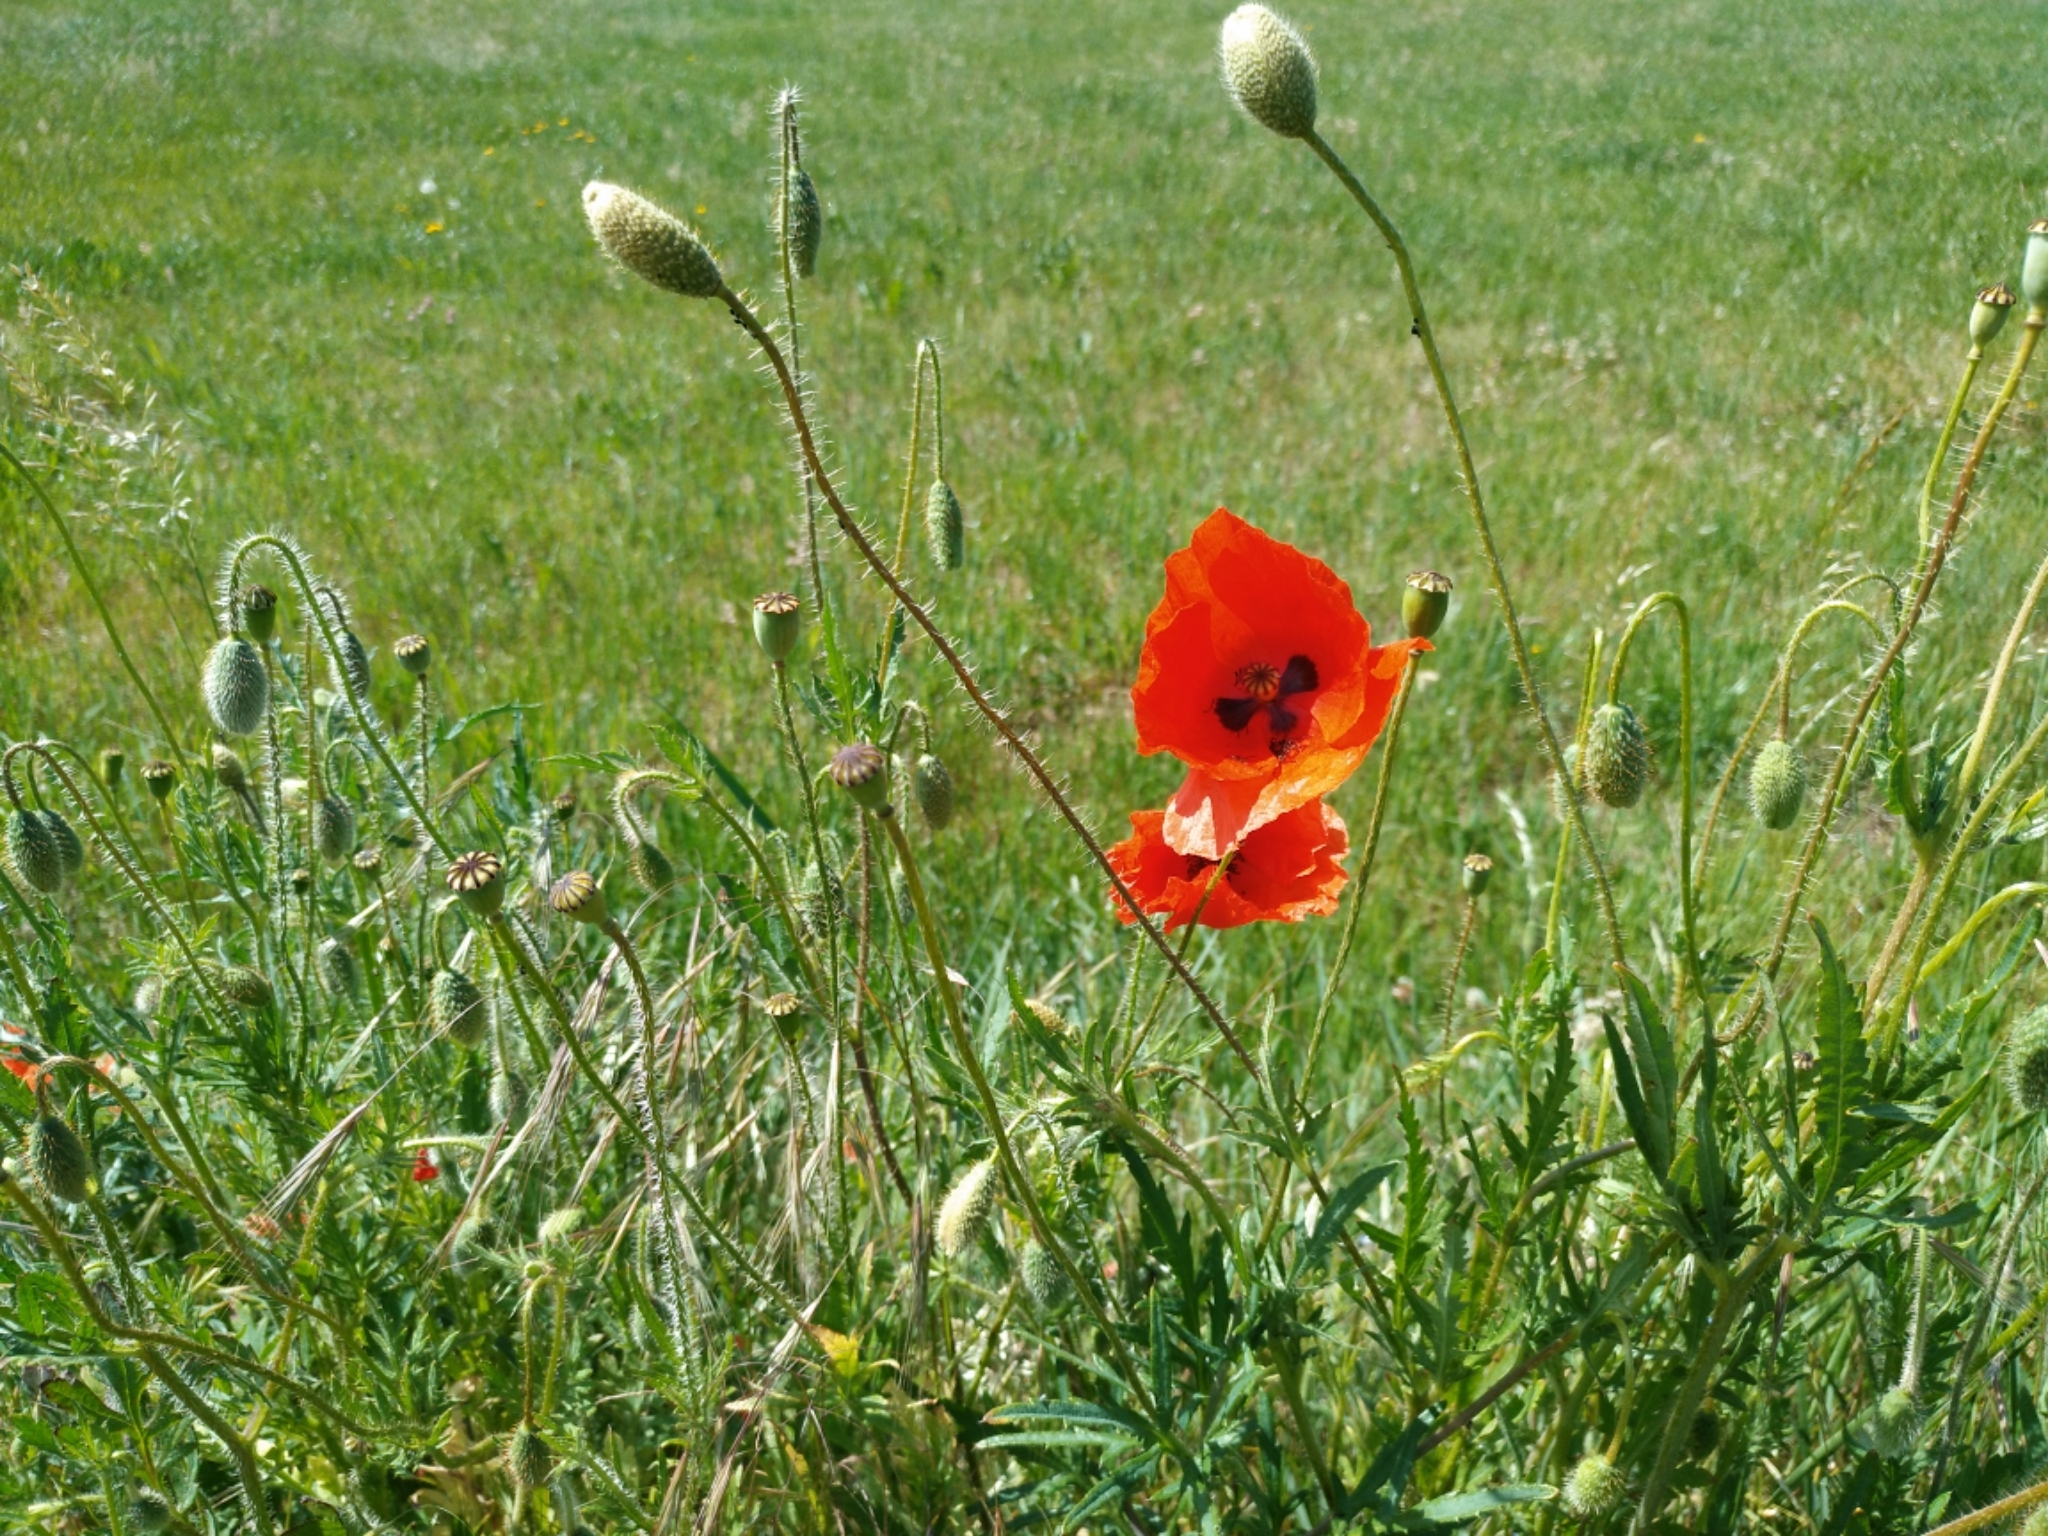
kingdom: Plantae
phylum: Tracheophyta
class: Magnoliopsida
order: Ranunculales
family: Papaveraceae
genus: Papaver
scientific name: Papaver rhoeas
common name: Corn poppy
